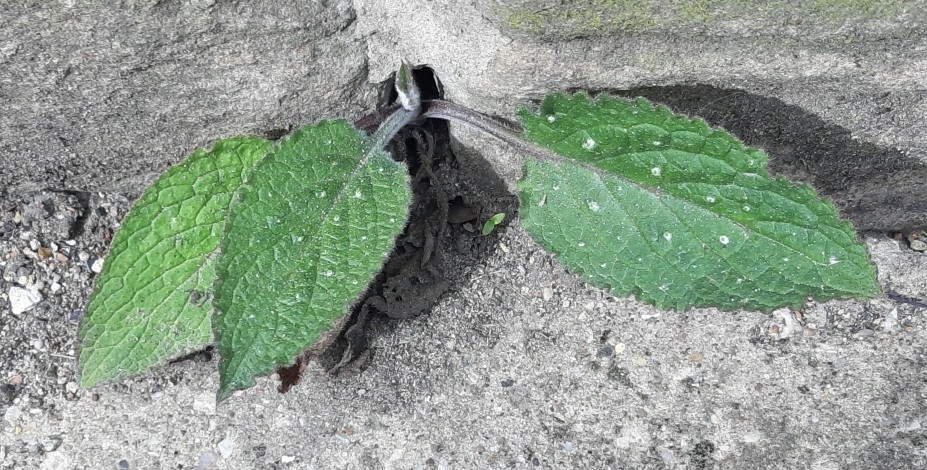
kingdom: Plantae
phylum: Tracheophyta
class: Magnoliopsida
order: Boraginales
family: Boraginaceae
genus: Pentaglottis
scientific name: Pentaglottis sempervirens
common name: Green alkanet
